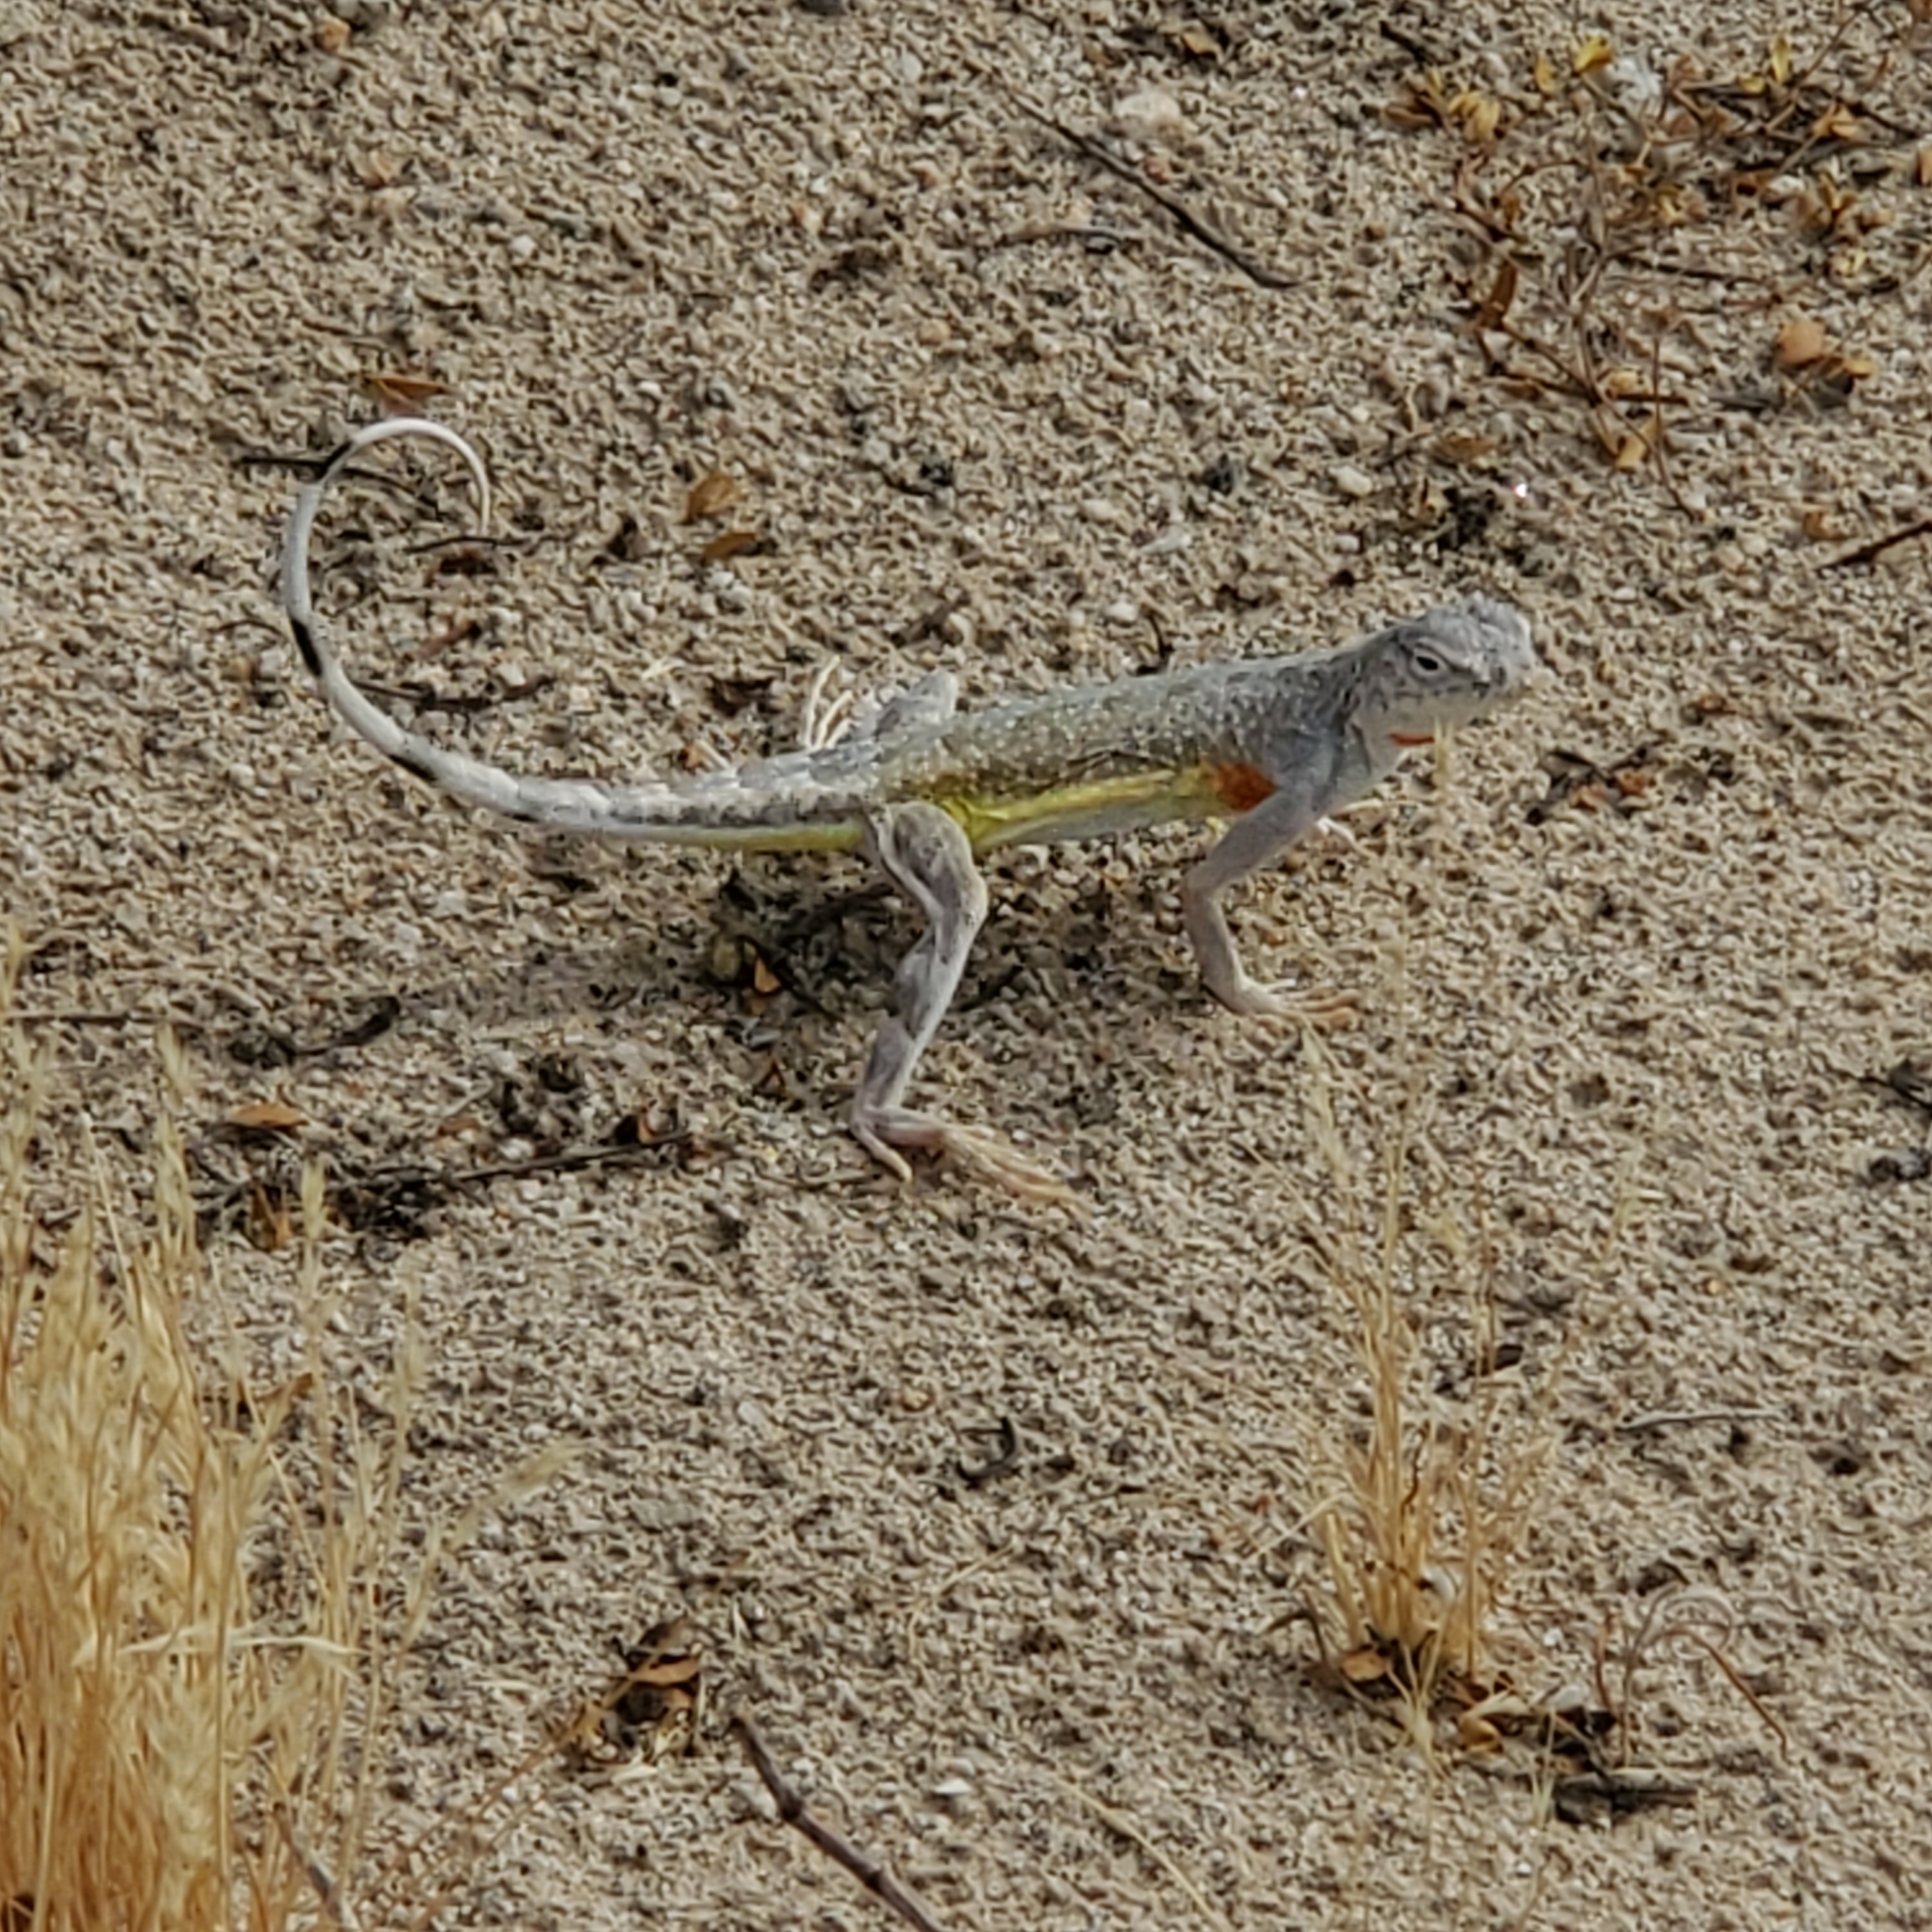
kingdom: Animalia
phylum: Chordata
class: Squamata
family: Phrynosomatidae
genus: Callisaurus
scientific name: Callisaurus draconoides
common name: Zebra-tailed lizard
